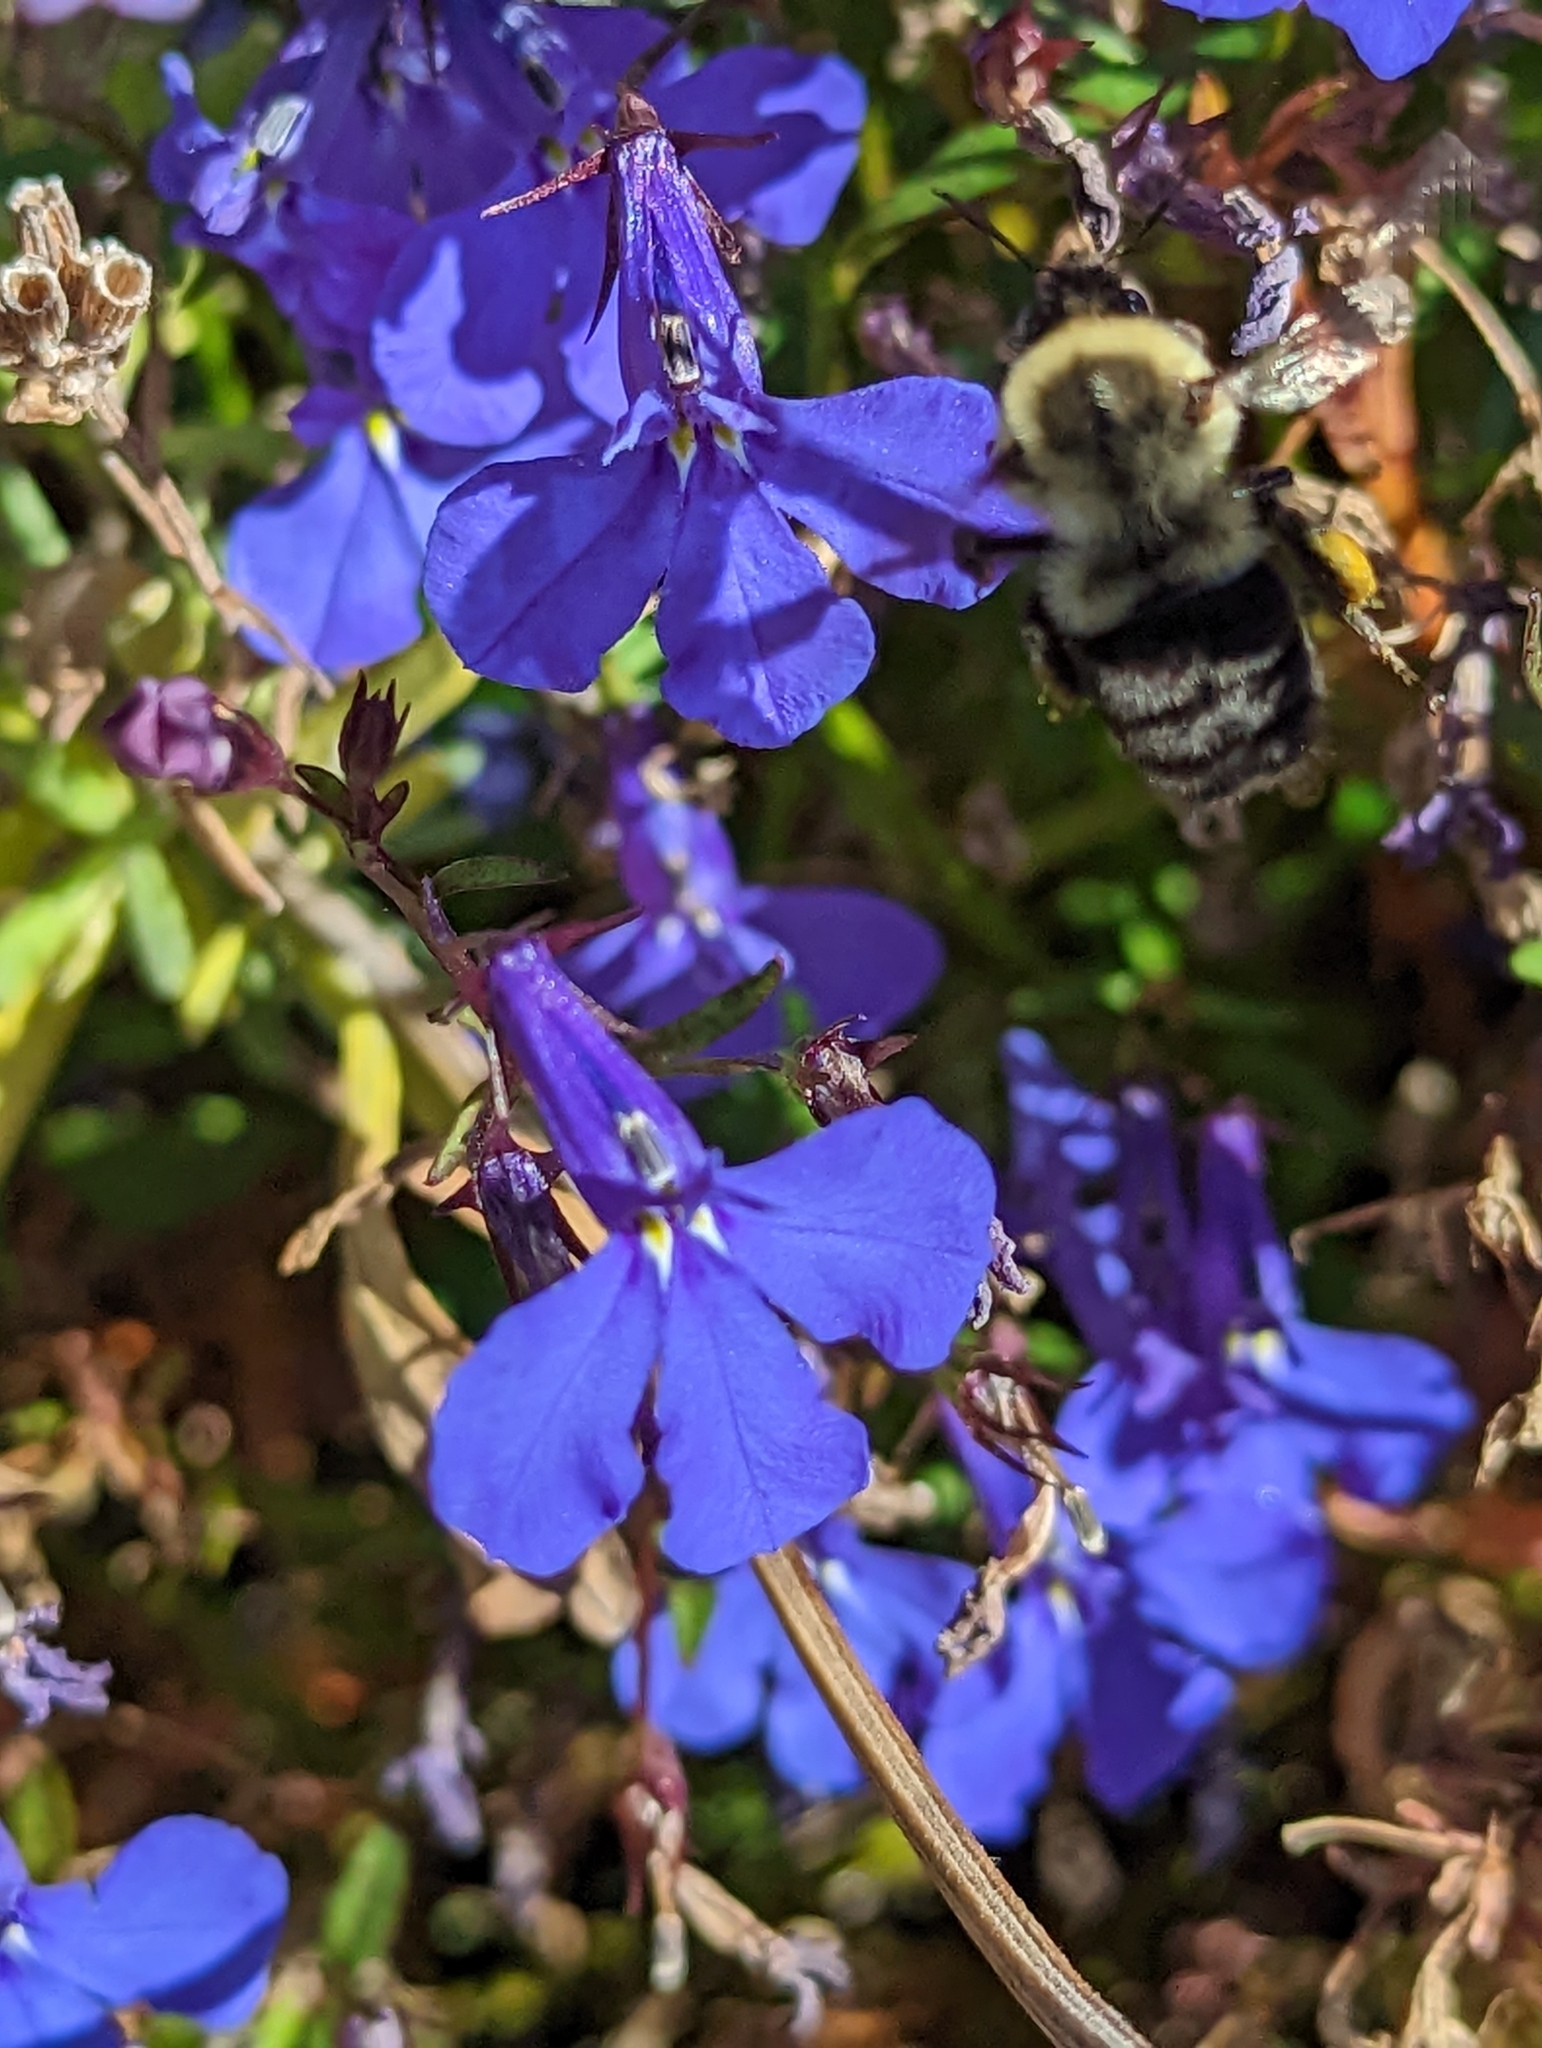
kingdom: Animalia
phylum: Arthropoda
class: Insecta
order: Hymenoptera
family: Apidae
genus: Bombus
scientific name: Bombus impatiens
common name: Common eastern bumble bee
